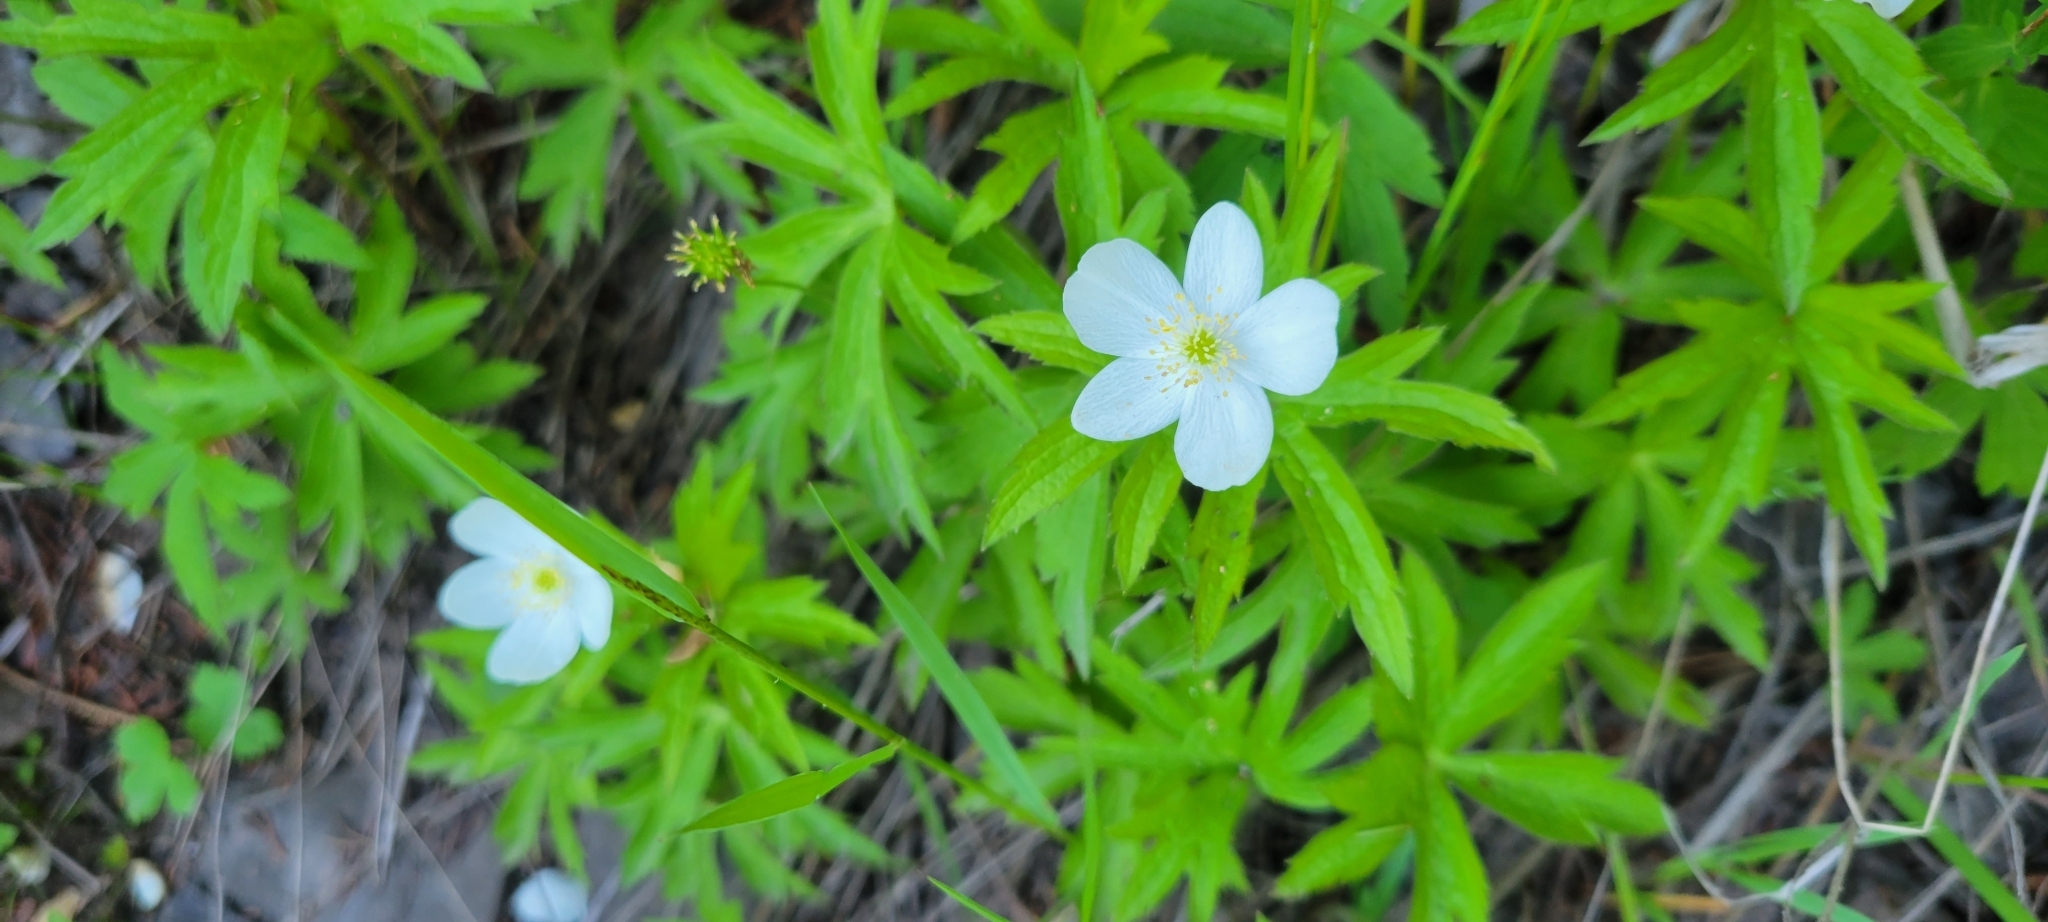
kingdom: Plantae
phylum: Tracheophyta
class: Magnoliopsida
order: Ranunculales
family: Ranunculaceae
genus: Anemonastrum
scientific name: Anemonastrum canadense
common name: Canada anemone
